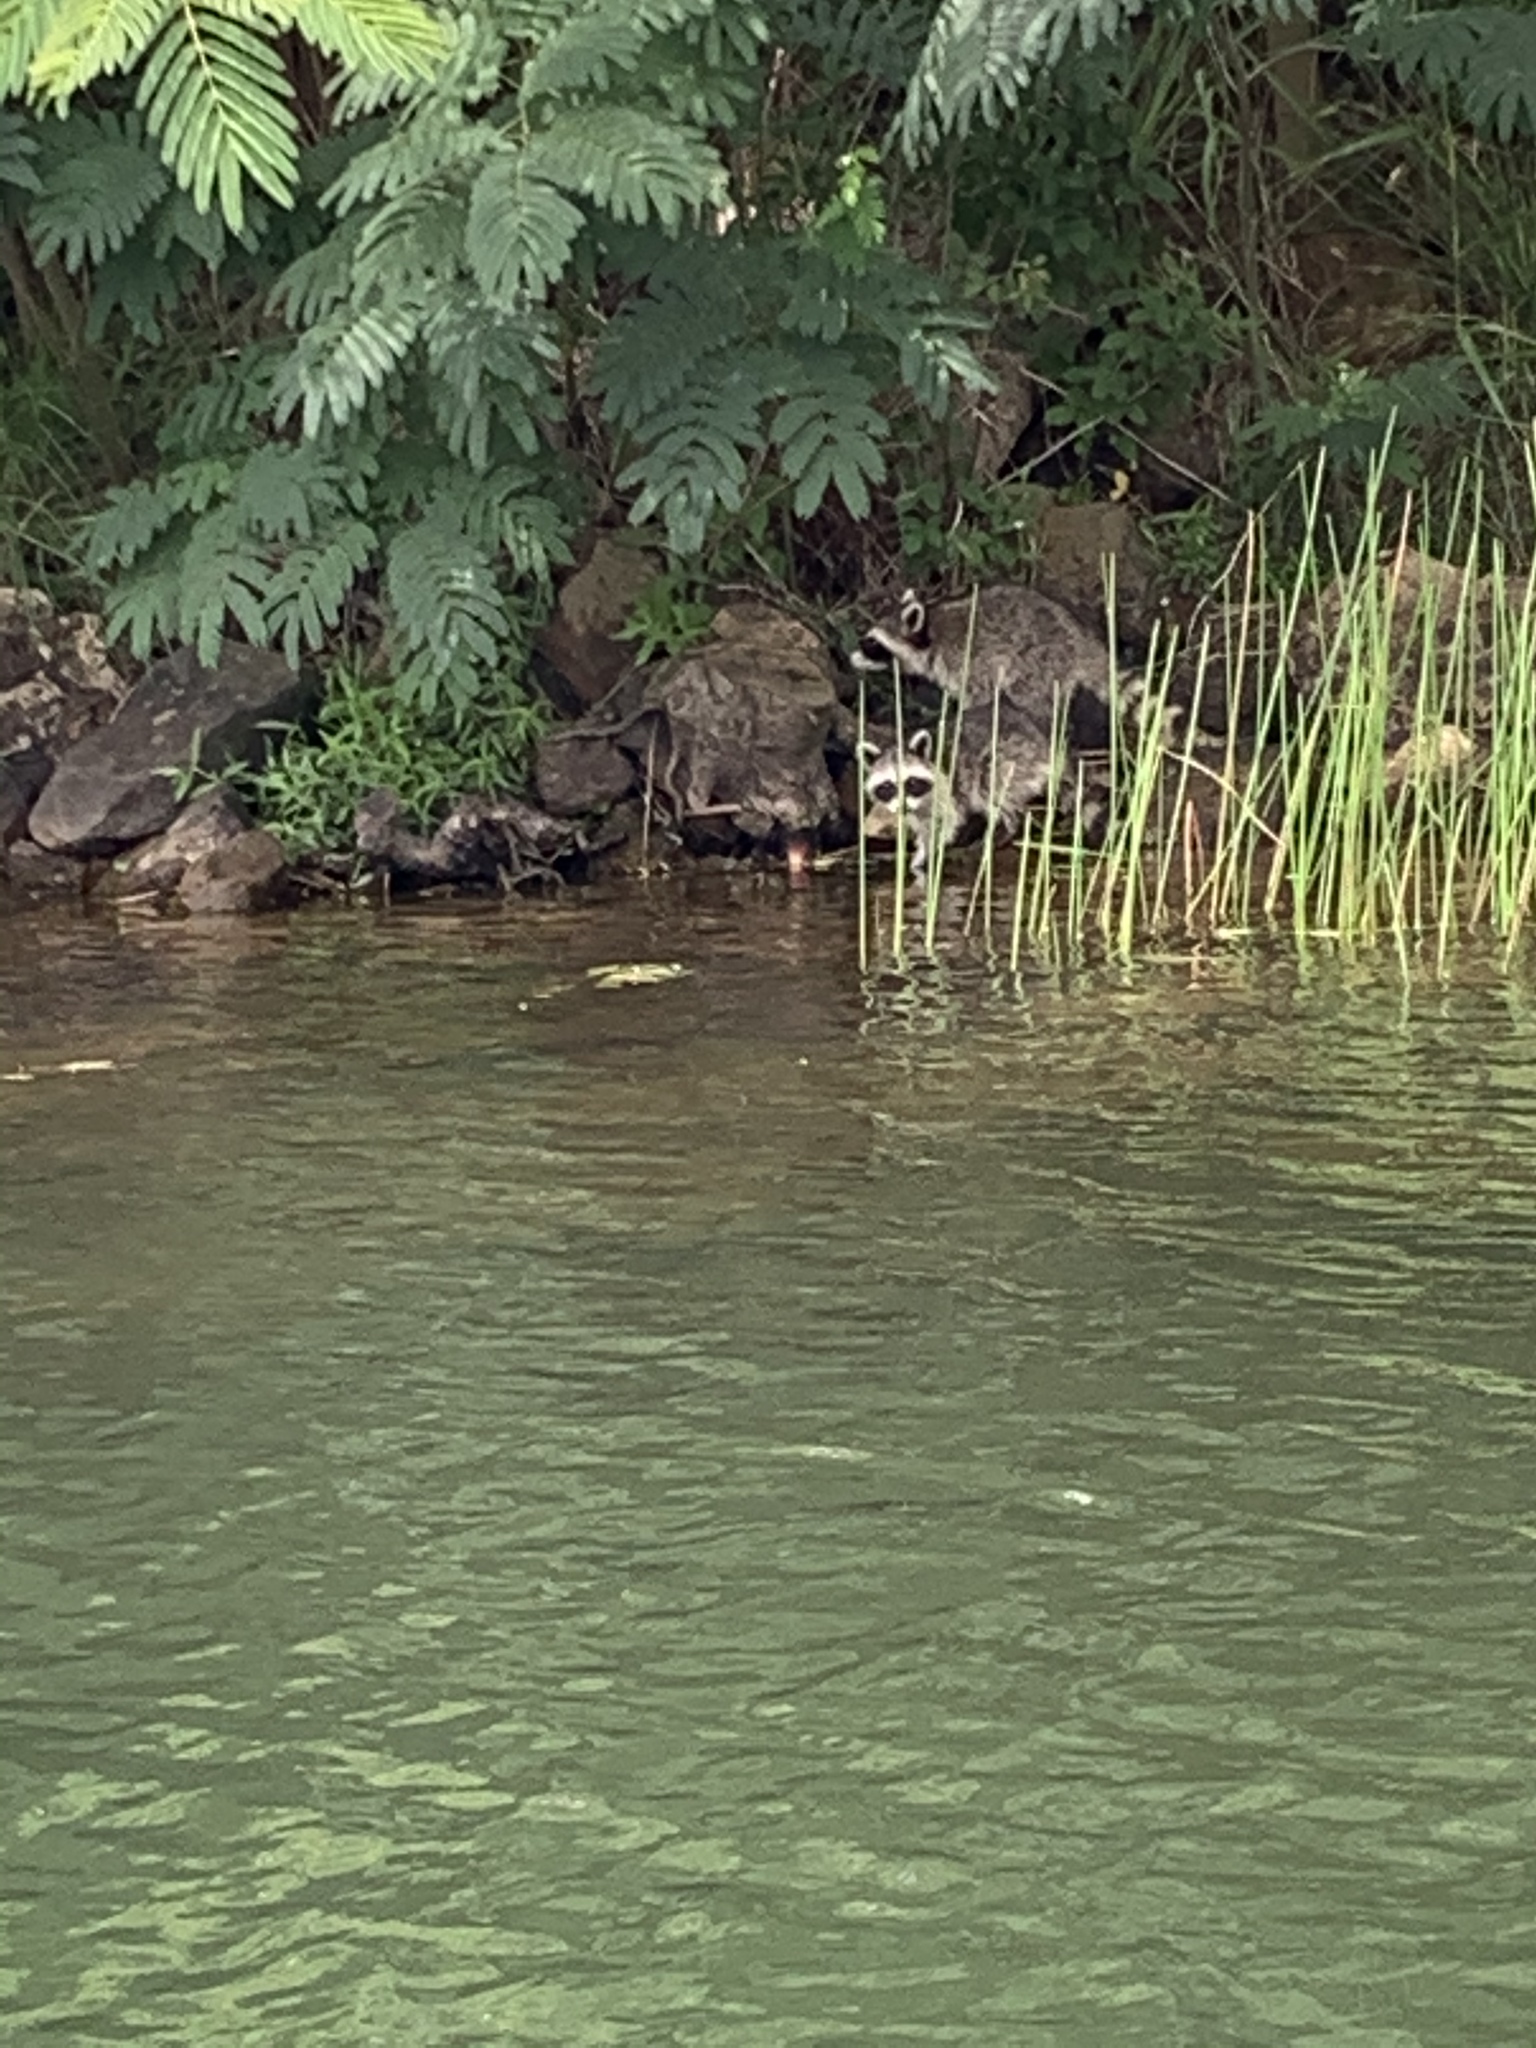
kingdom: Animalia
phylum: Chordata
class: Mammalia
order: Carnivora
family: Procyonidae
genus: Procyon
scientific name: Procyon lotor
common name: Raccoon
